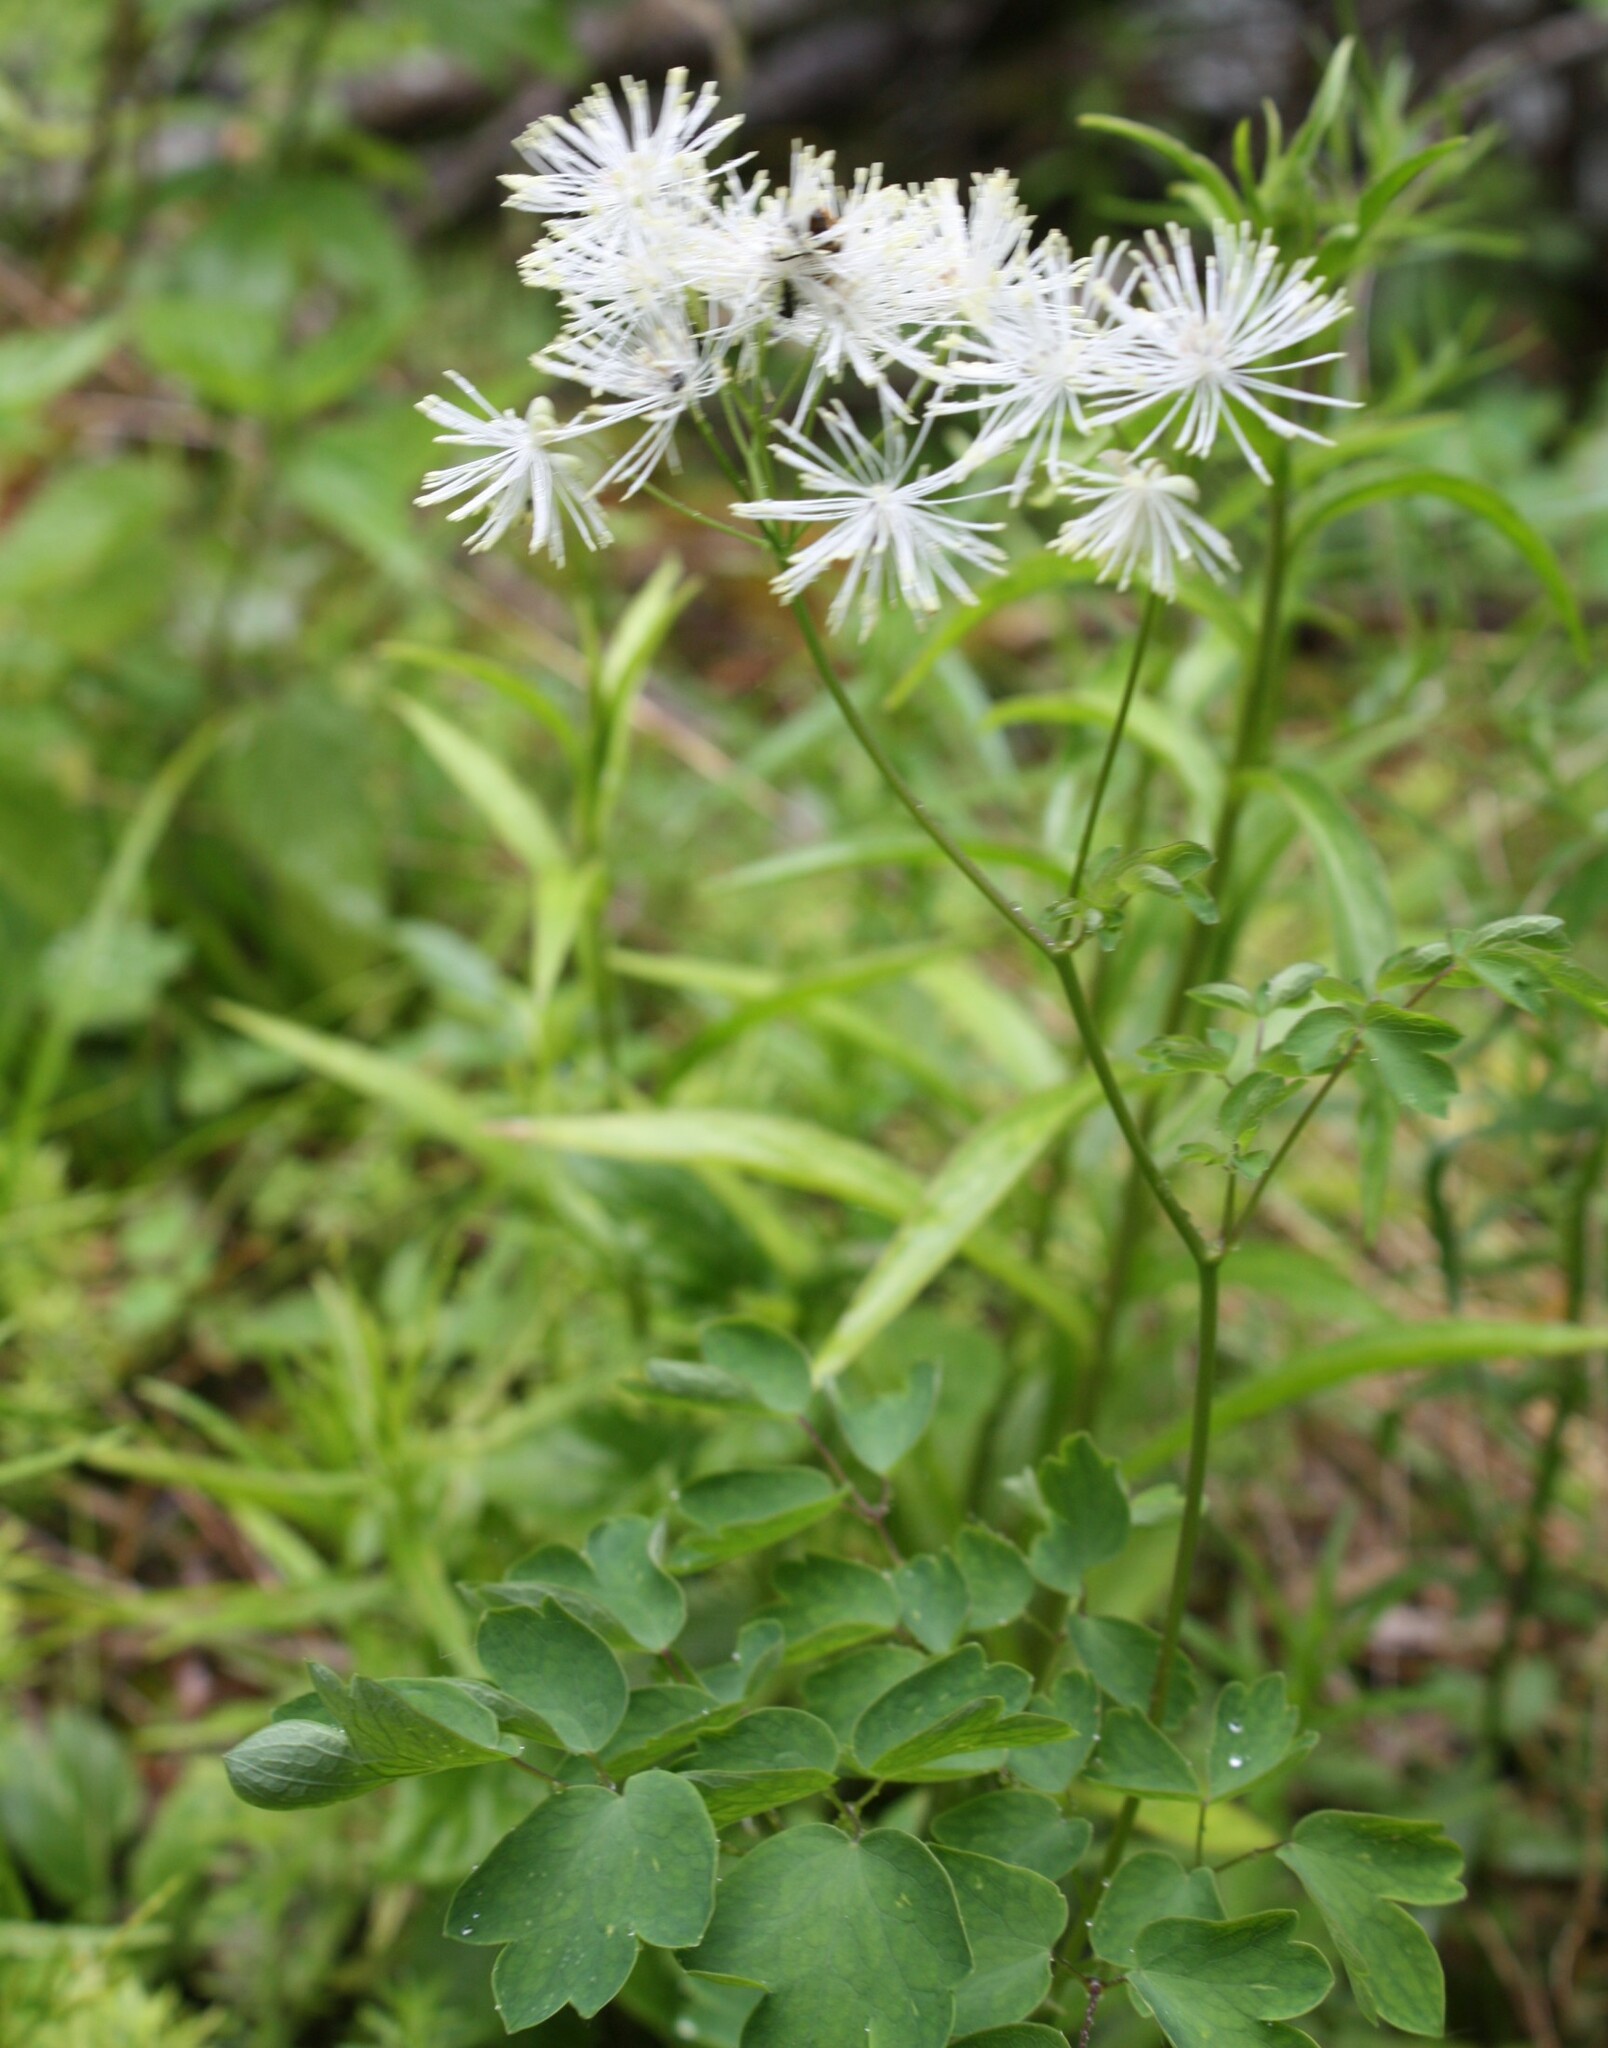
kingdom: Plantae
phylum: Tracheophyta
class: Magnoliopsida
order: Ranunculales
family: Ranunculaceae
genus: Thalictrum
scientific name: Thalictrum aquilegiifolium
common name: French meadow-rue
